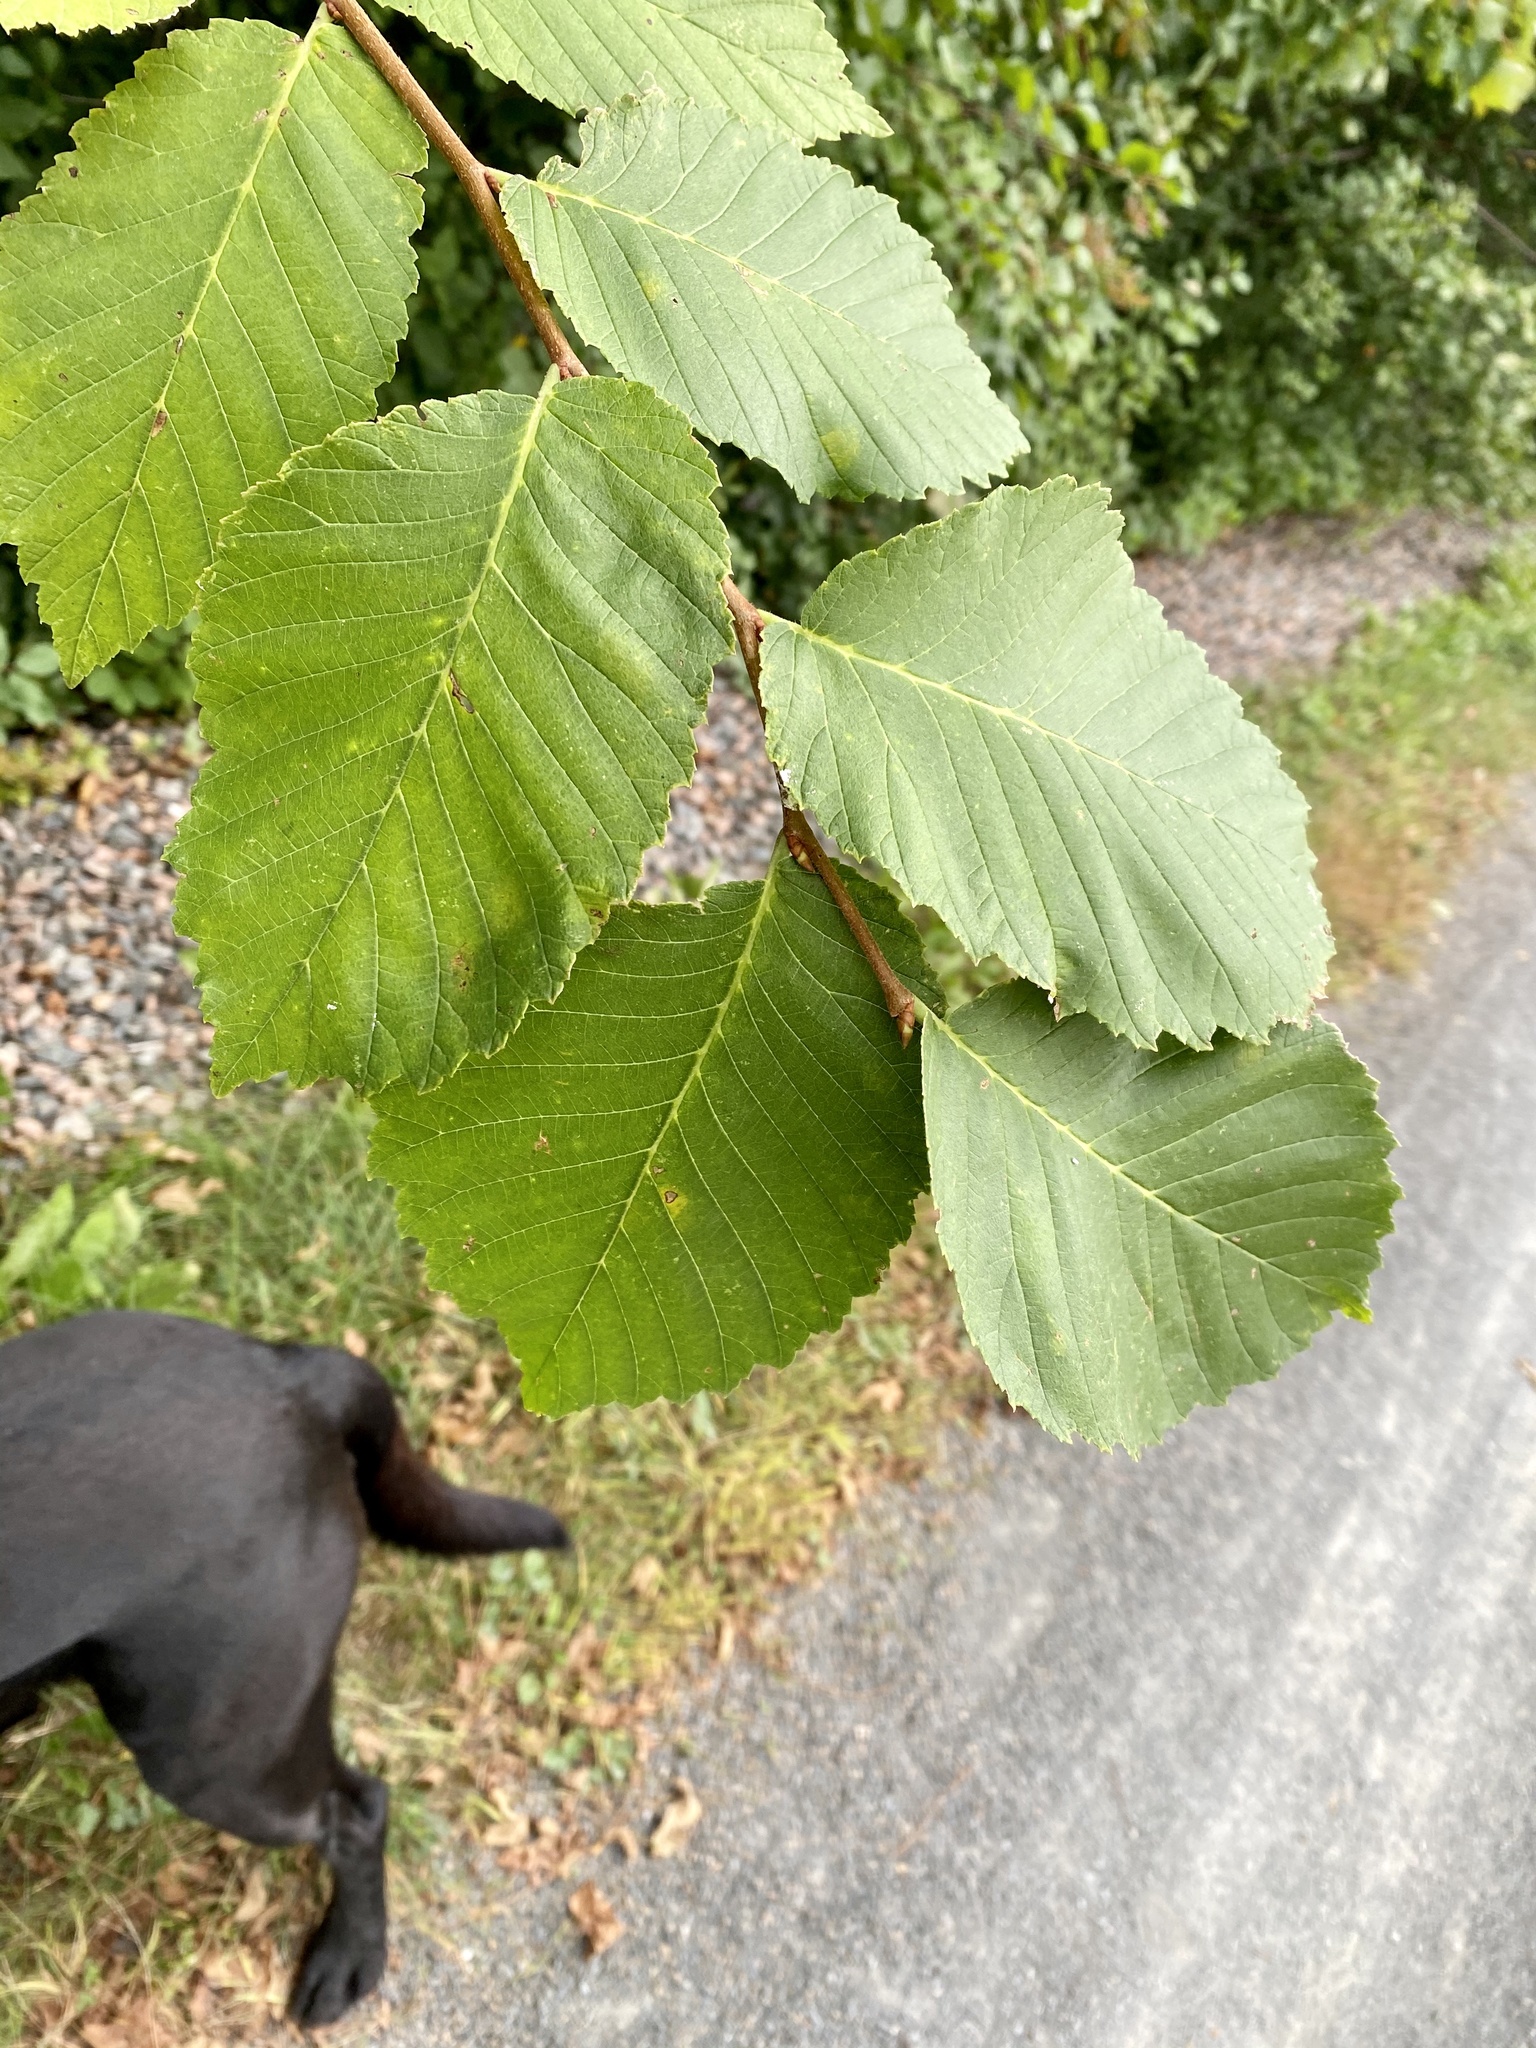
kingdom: Plantae
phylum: Tracheophyta
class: Magnoliopsida
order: Rosales
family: Ulmaceae
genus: Ulmus
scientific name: Ulmus americana
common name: American elm
